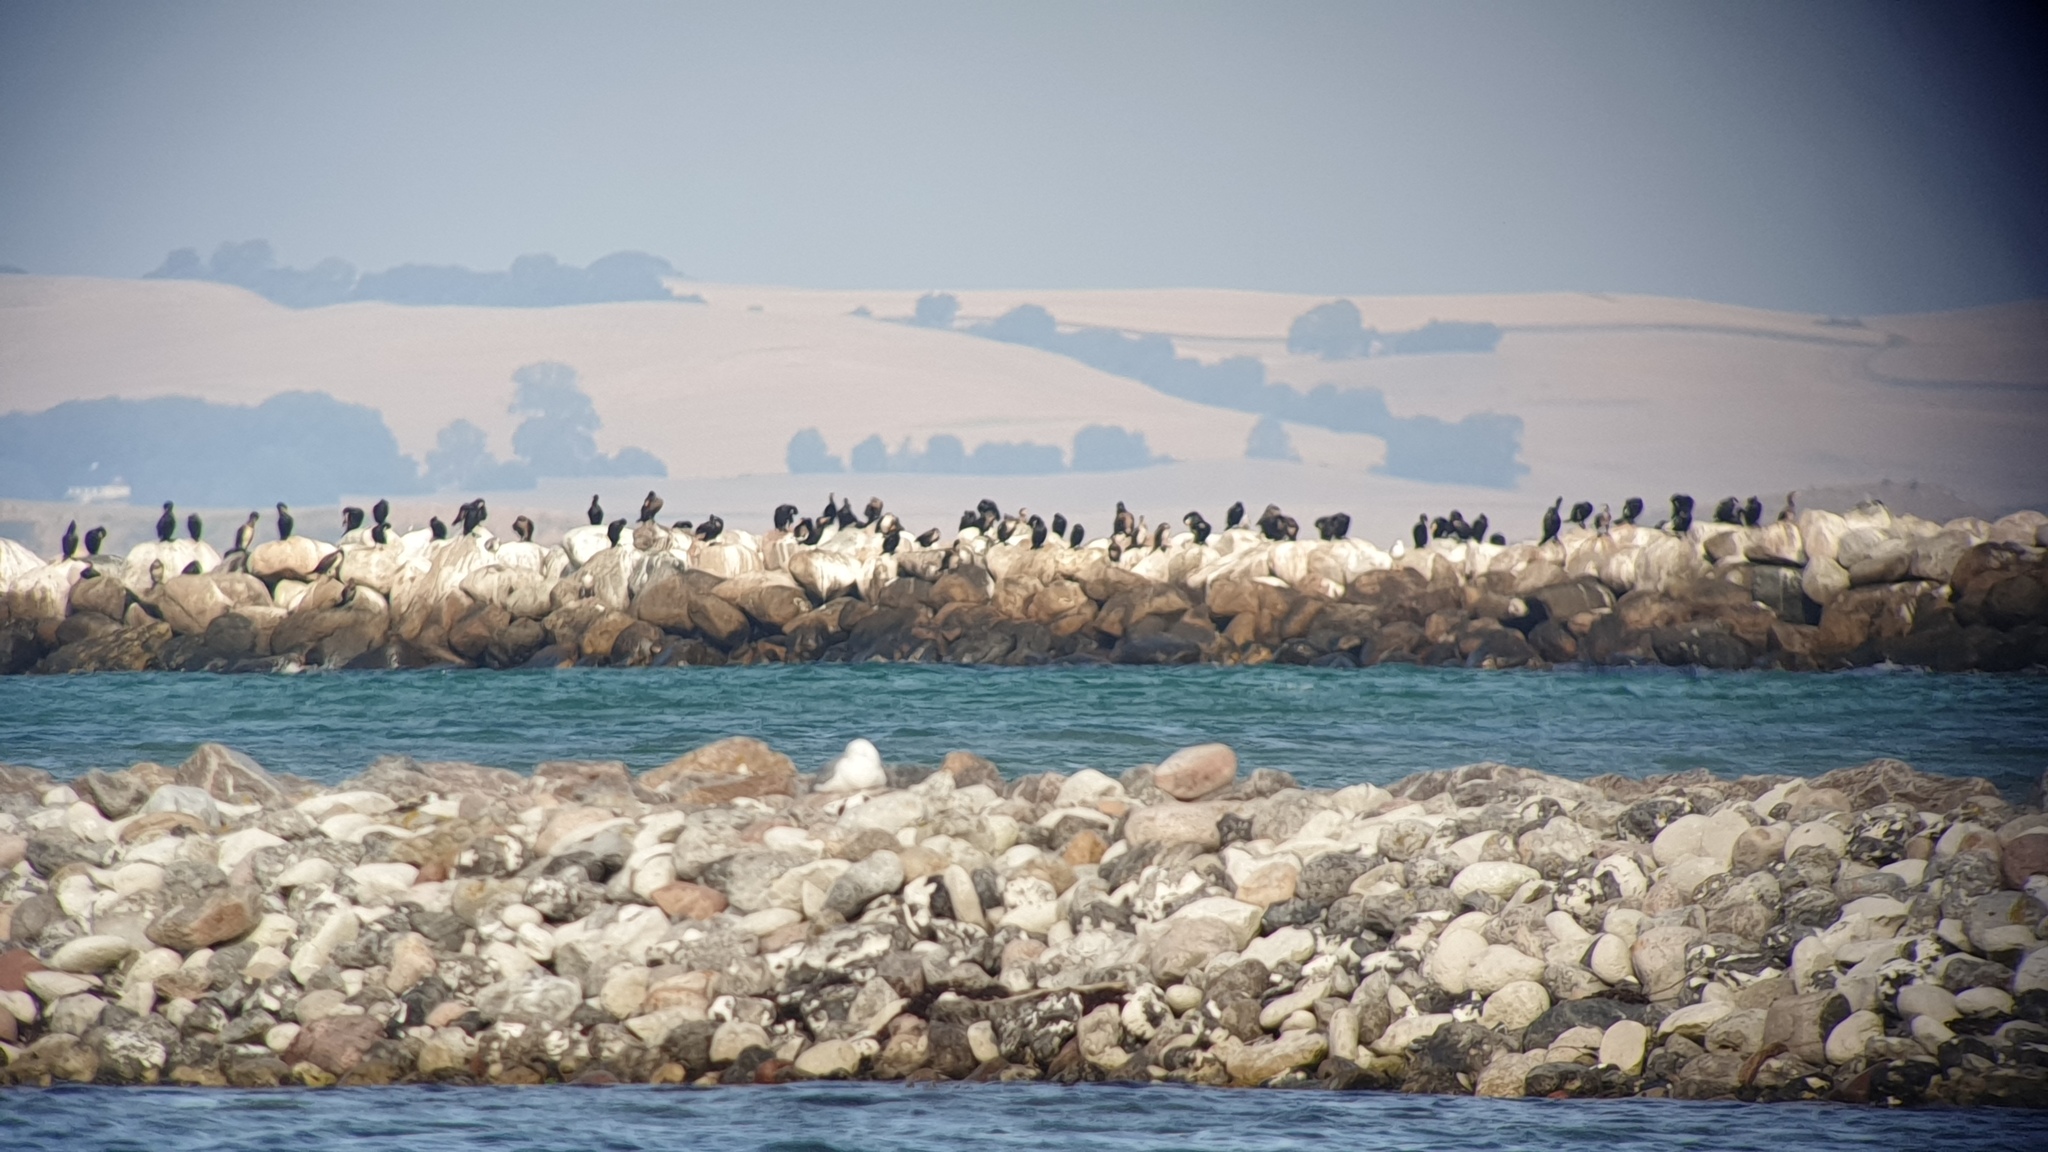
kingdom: Animalia
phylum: Chordata
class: Aves
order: Suliformes
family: Phalacrocoracidae
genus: Phalacrocorax
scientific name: Phalacrocorax carbo
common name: Great cormorant
